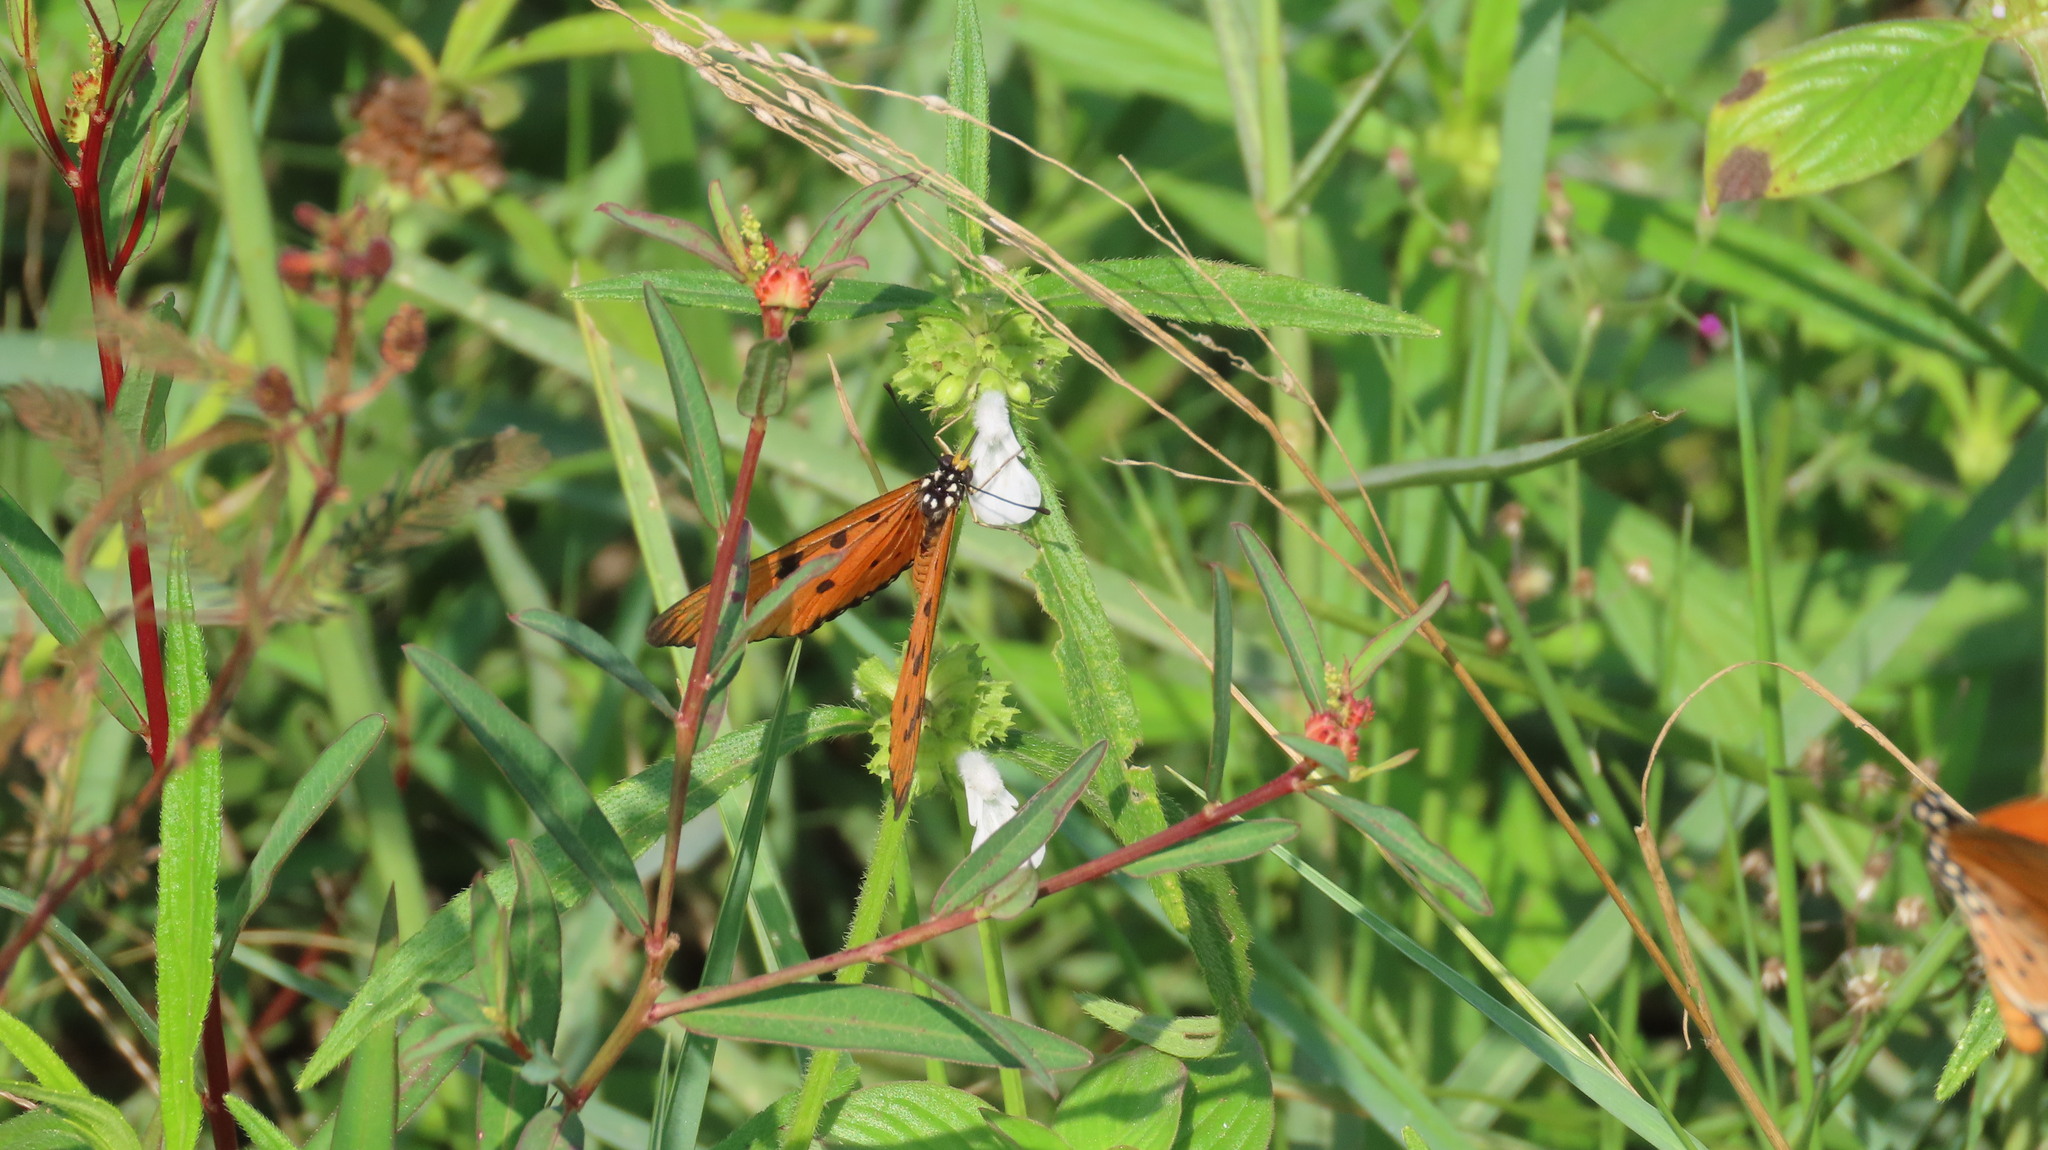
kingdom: Animalia
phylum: Arthropoda
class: Insecta
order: Lepidoptera
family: Nymphalidae
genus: Acraea
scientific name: Acraea terpsicore
